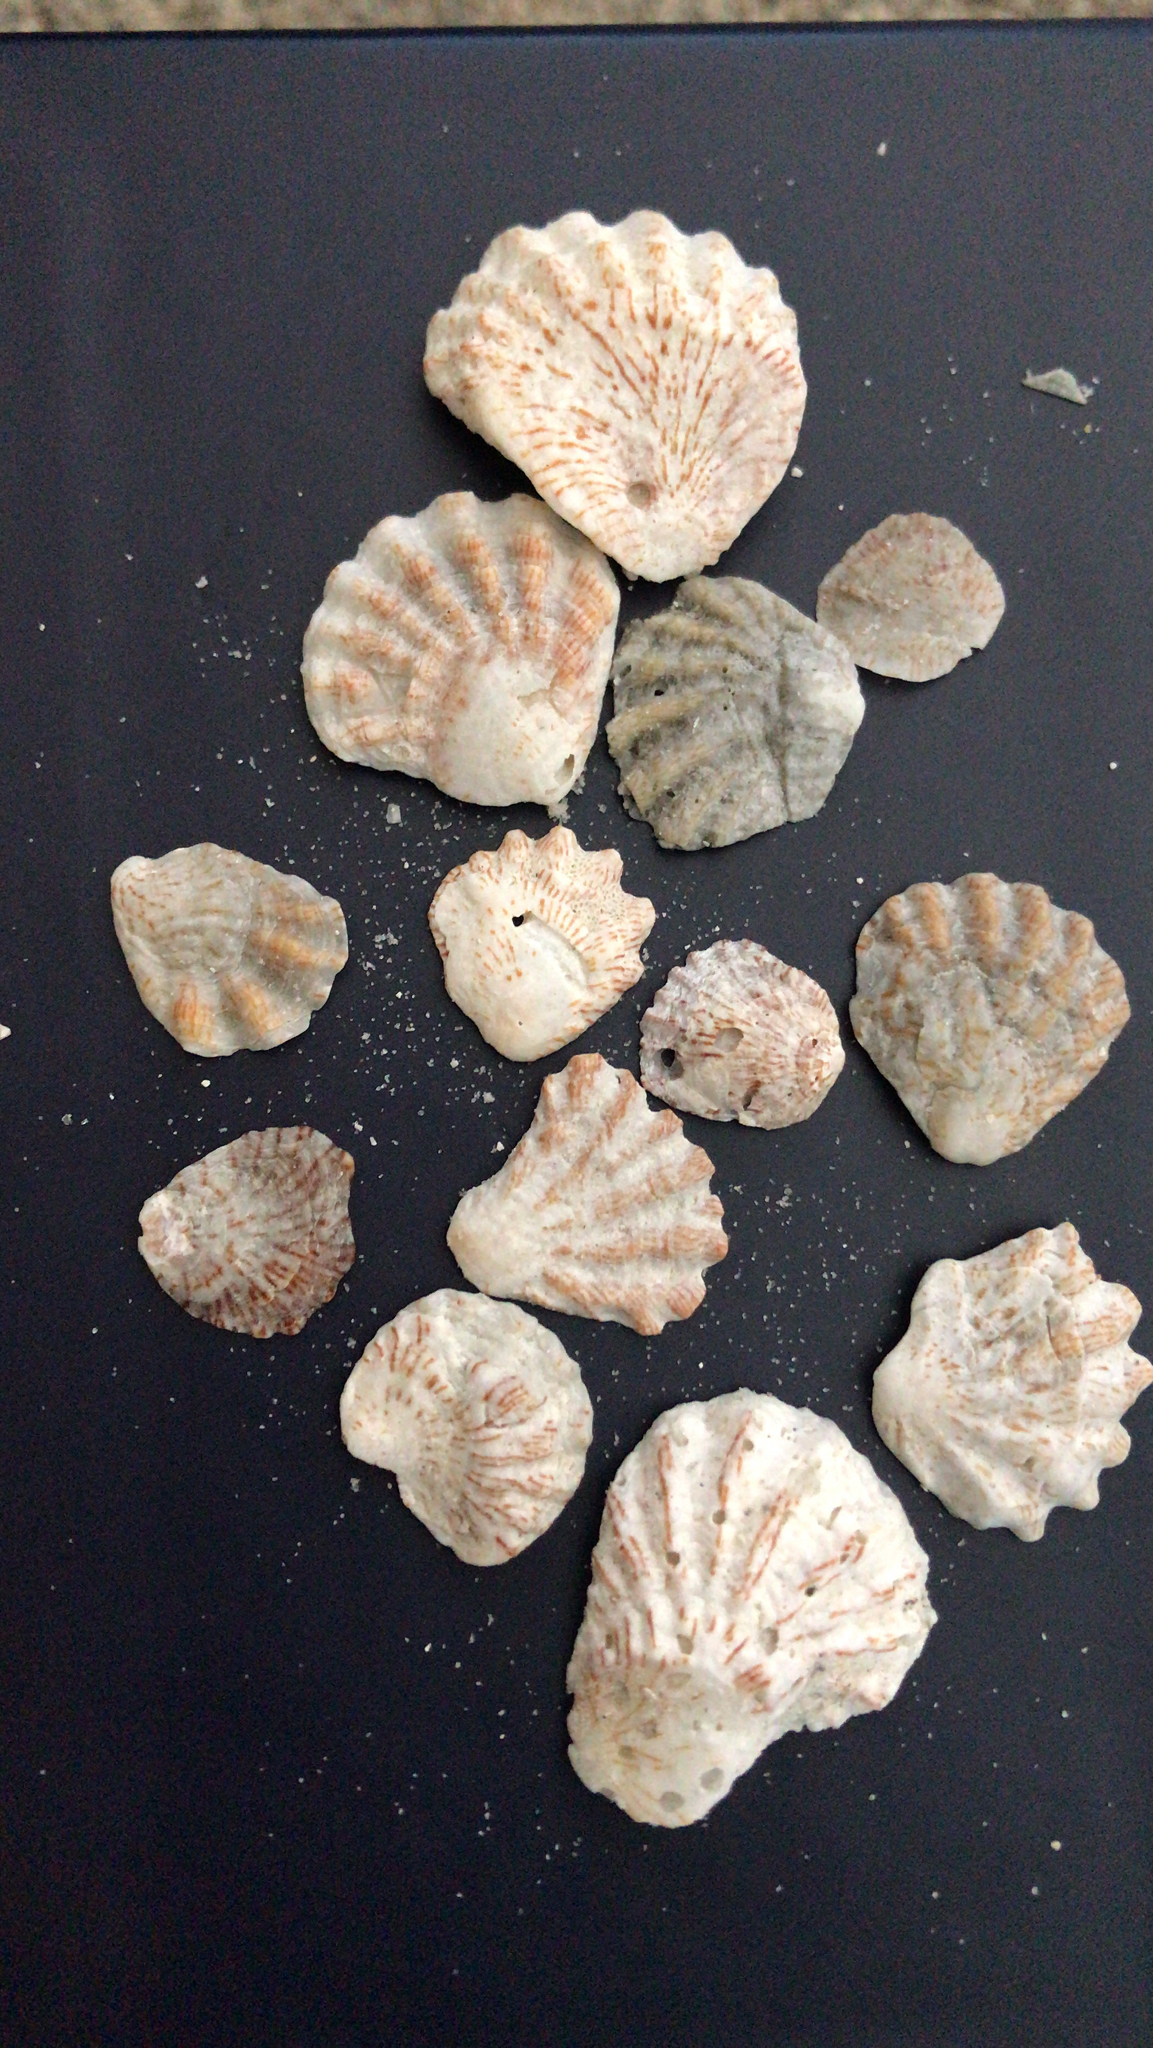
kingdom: Animalia
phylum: Mollusca
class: Bivalvia
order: Pectinida
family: Plicatulidae
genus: Plicatula
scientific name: Plicatula gibbosa
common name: Atlantic kitten's paw
